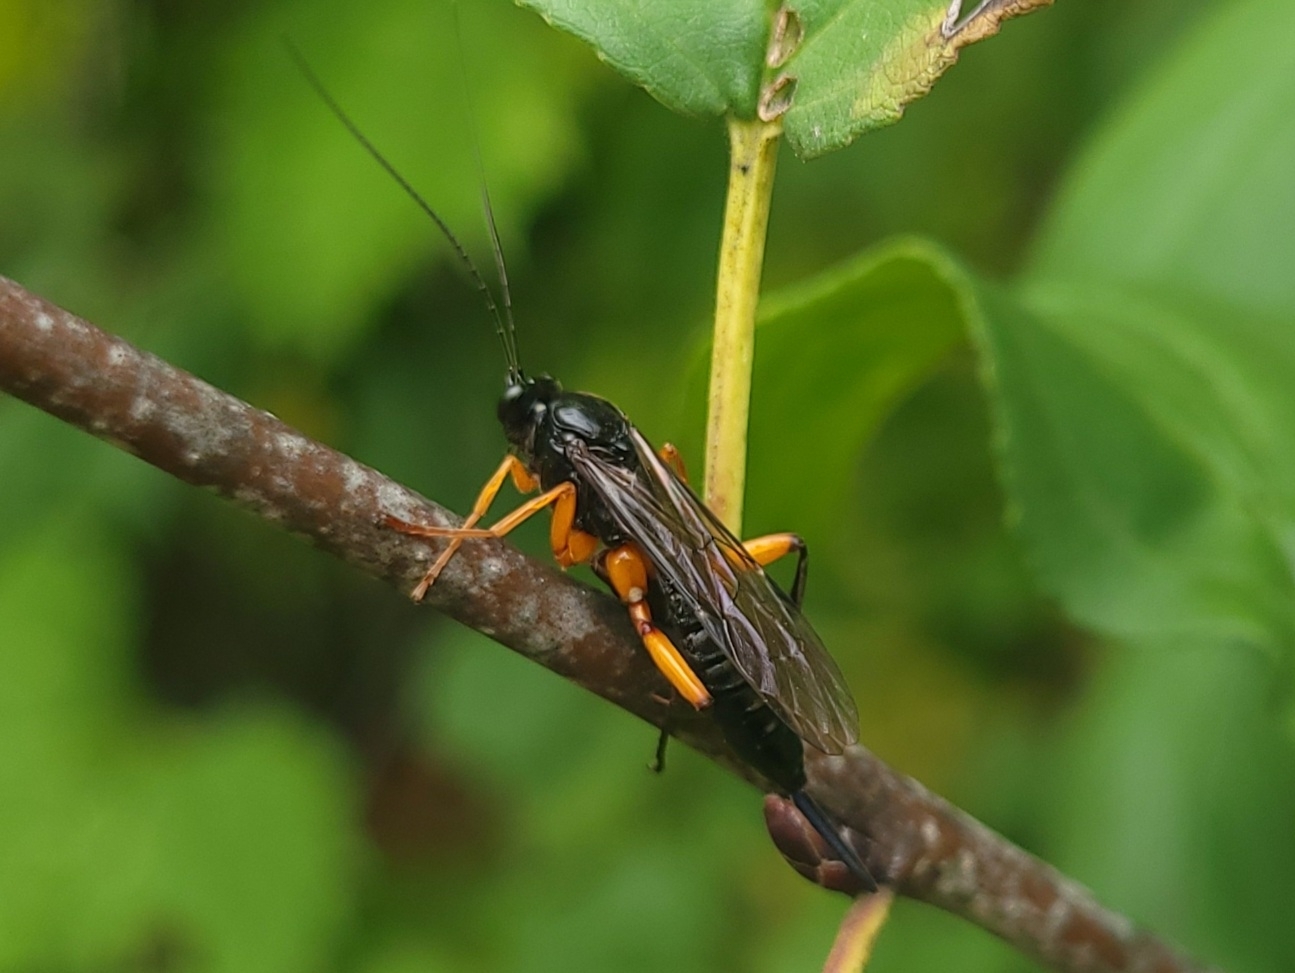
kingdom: Animalia
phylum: Arthropoda
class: Insecta
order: Hymenoptera
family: Ichneumonidae
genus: Pimpla
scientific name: Pimpla pedalis
